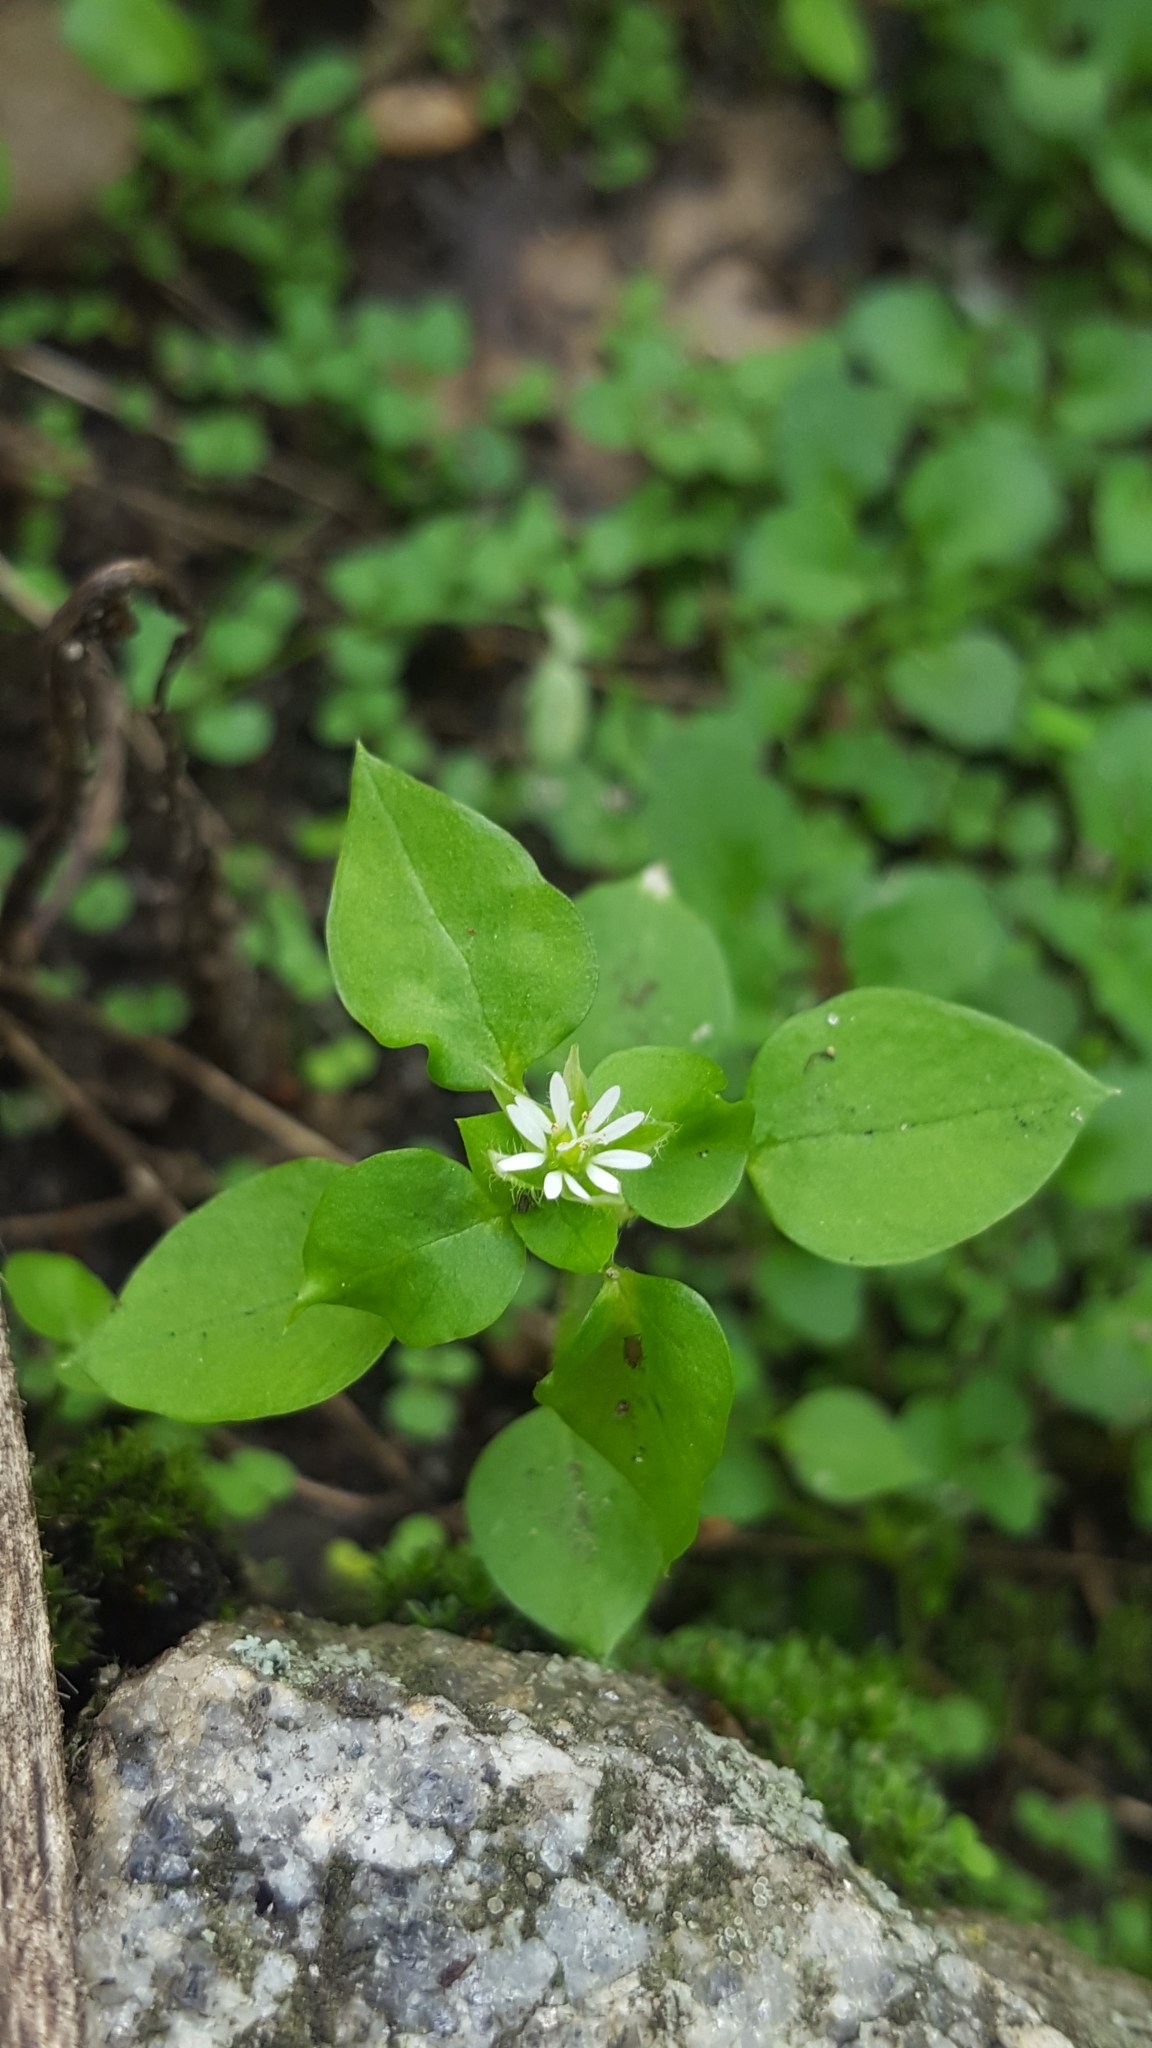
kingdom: Plantae
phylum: Tracheophyta
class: Magnoliopsida
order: Caryophyllales
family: Caryophyllaceae
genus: Stellaria
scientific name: Stellaria media
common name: Common chickweed
